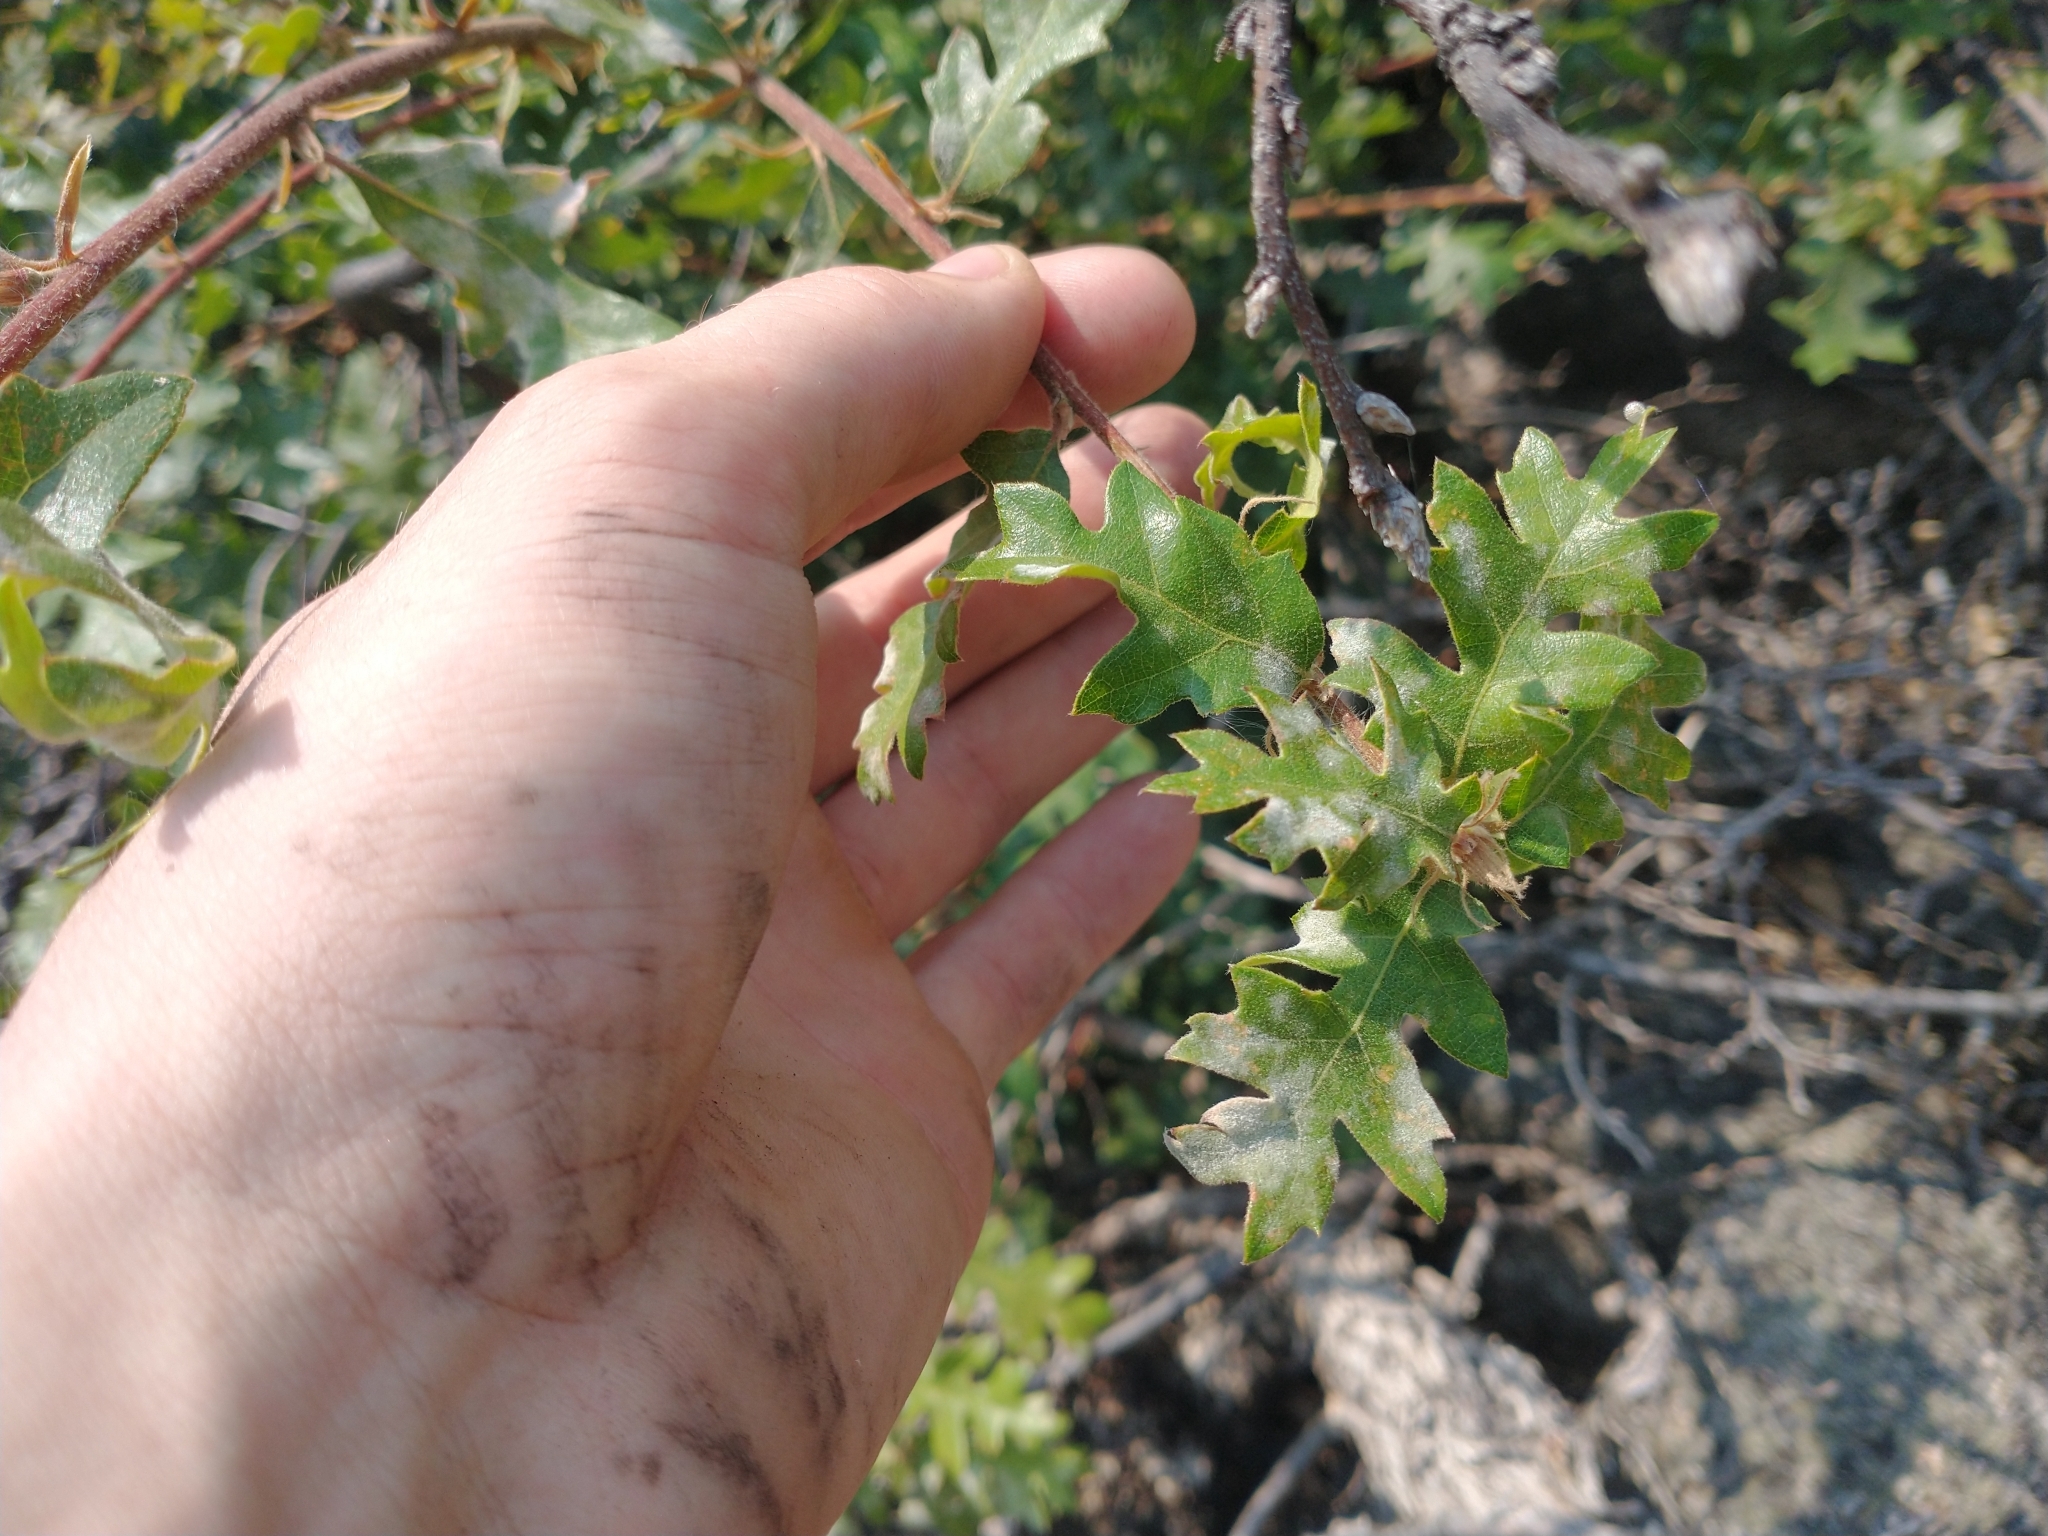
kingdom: Plantae
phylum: Tracheophyta
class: Magnoliopsida
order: Fagales
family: Fagaceae
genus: Quercus
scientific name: Quercus garryana
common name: Garry oak
